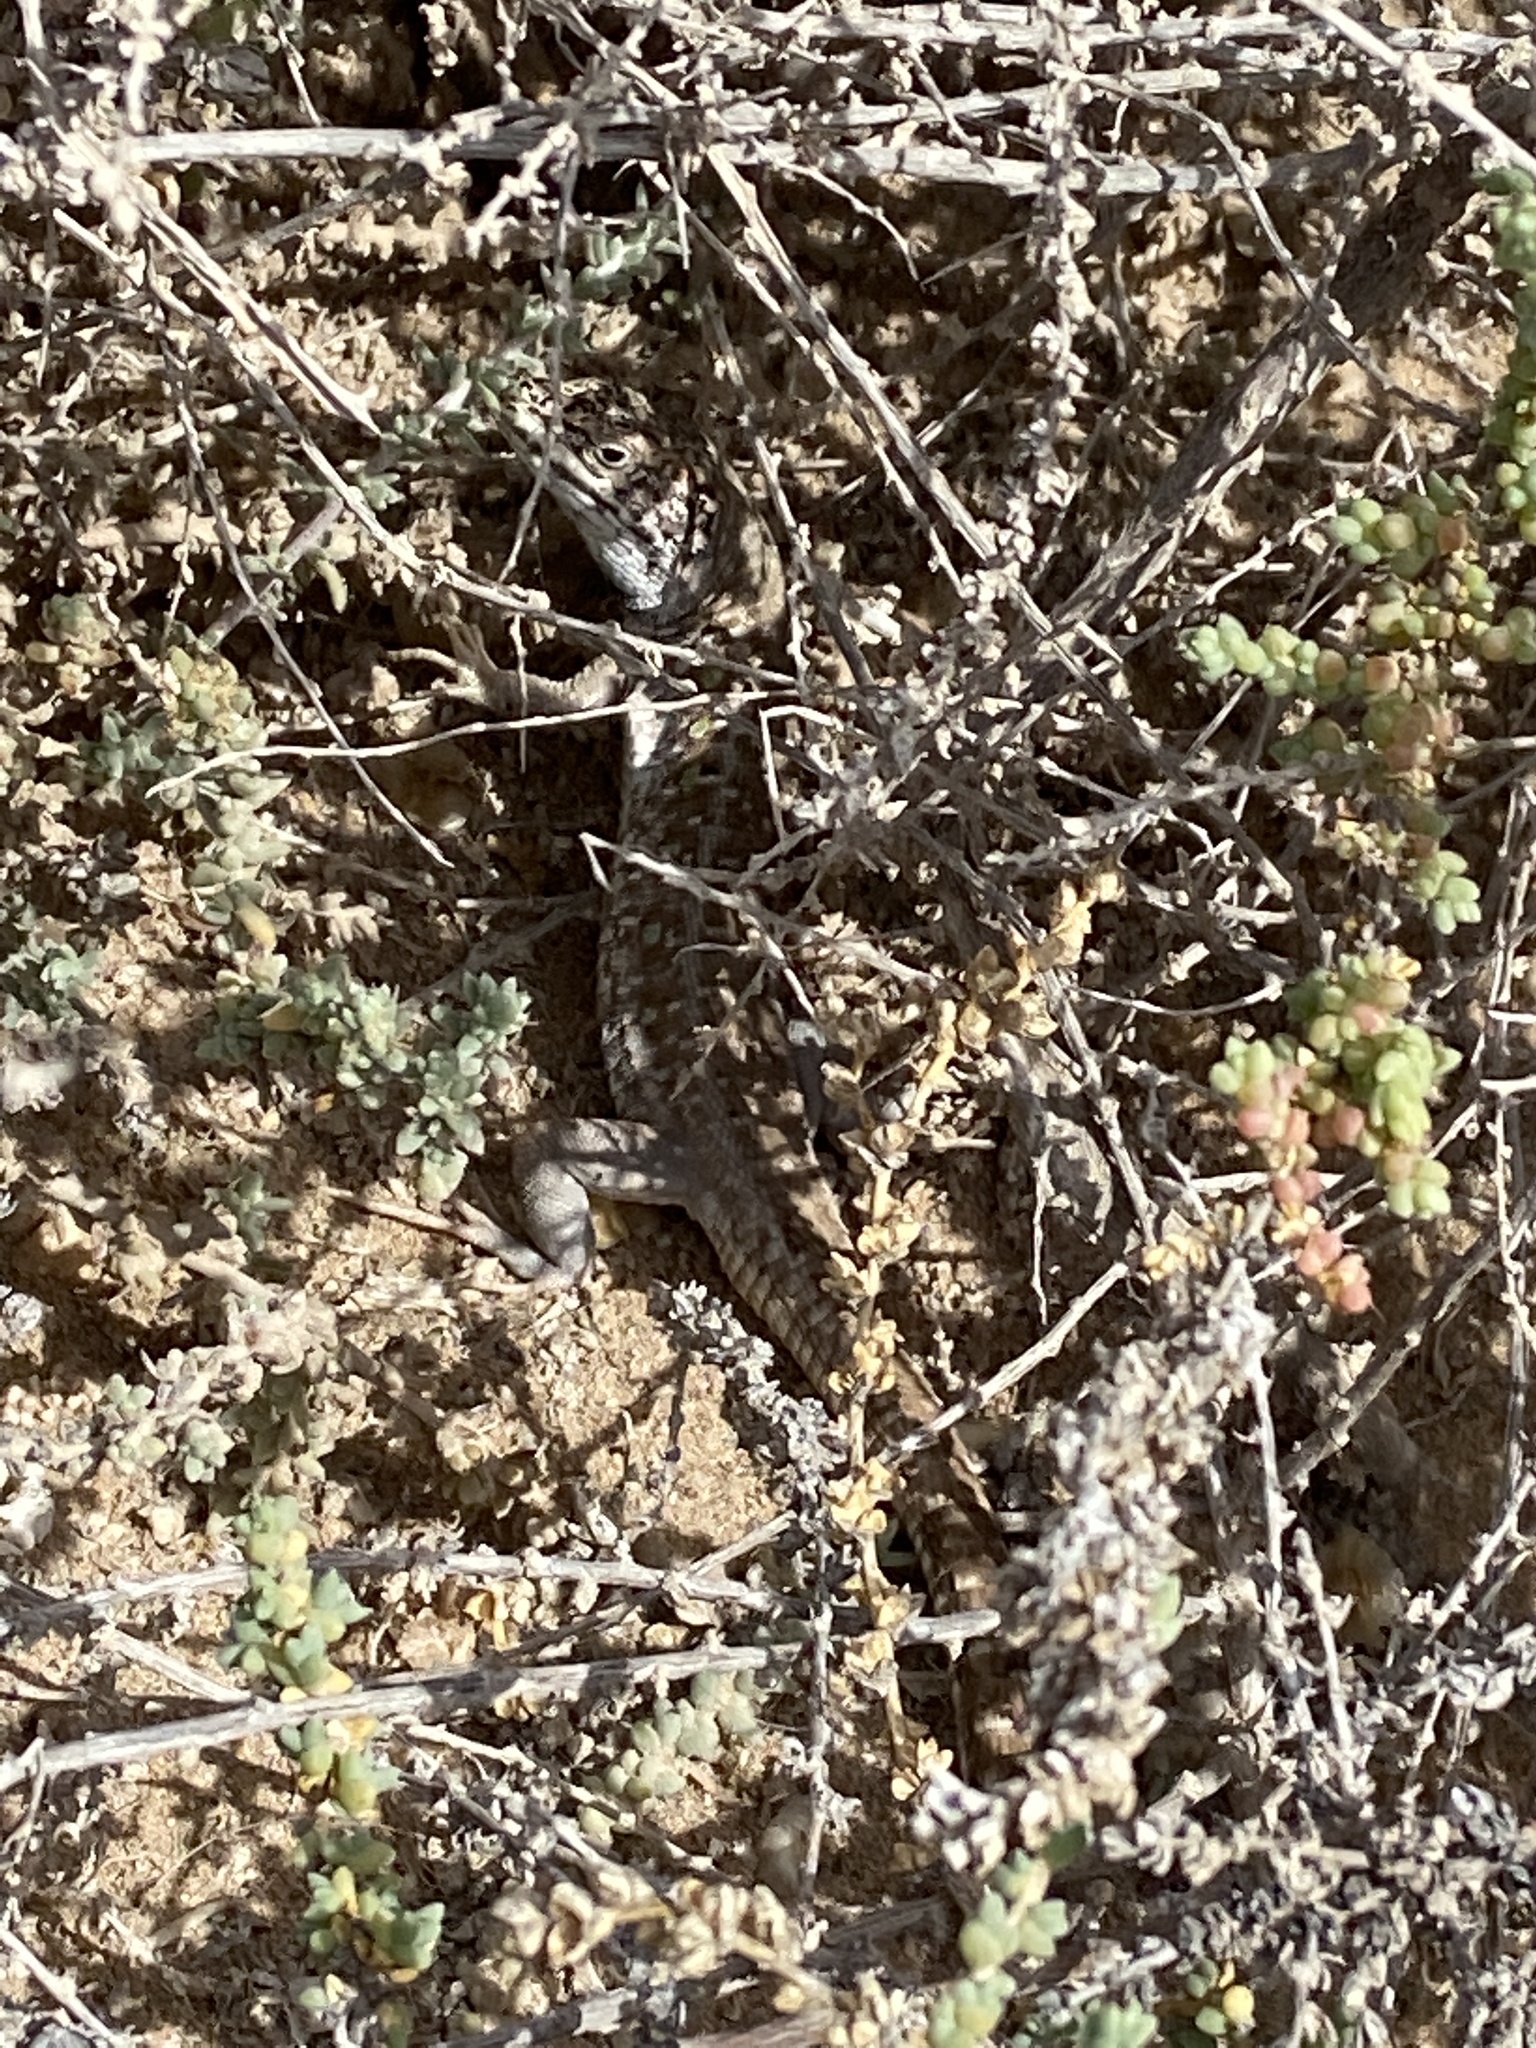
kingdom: Animalia
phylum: Chordata
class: Squamata
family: Lacertidae
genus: Gallotia
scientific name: Gallotia atlantica
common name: Atlantic lizard
